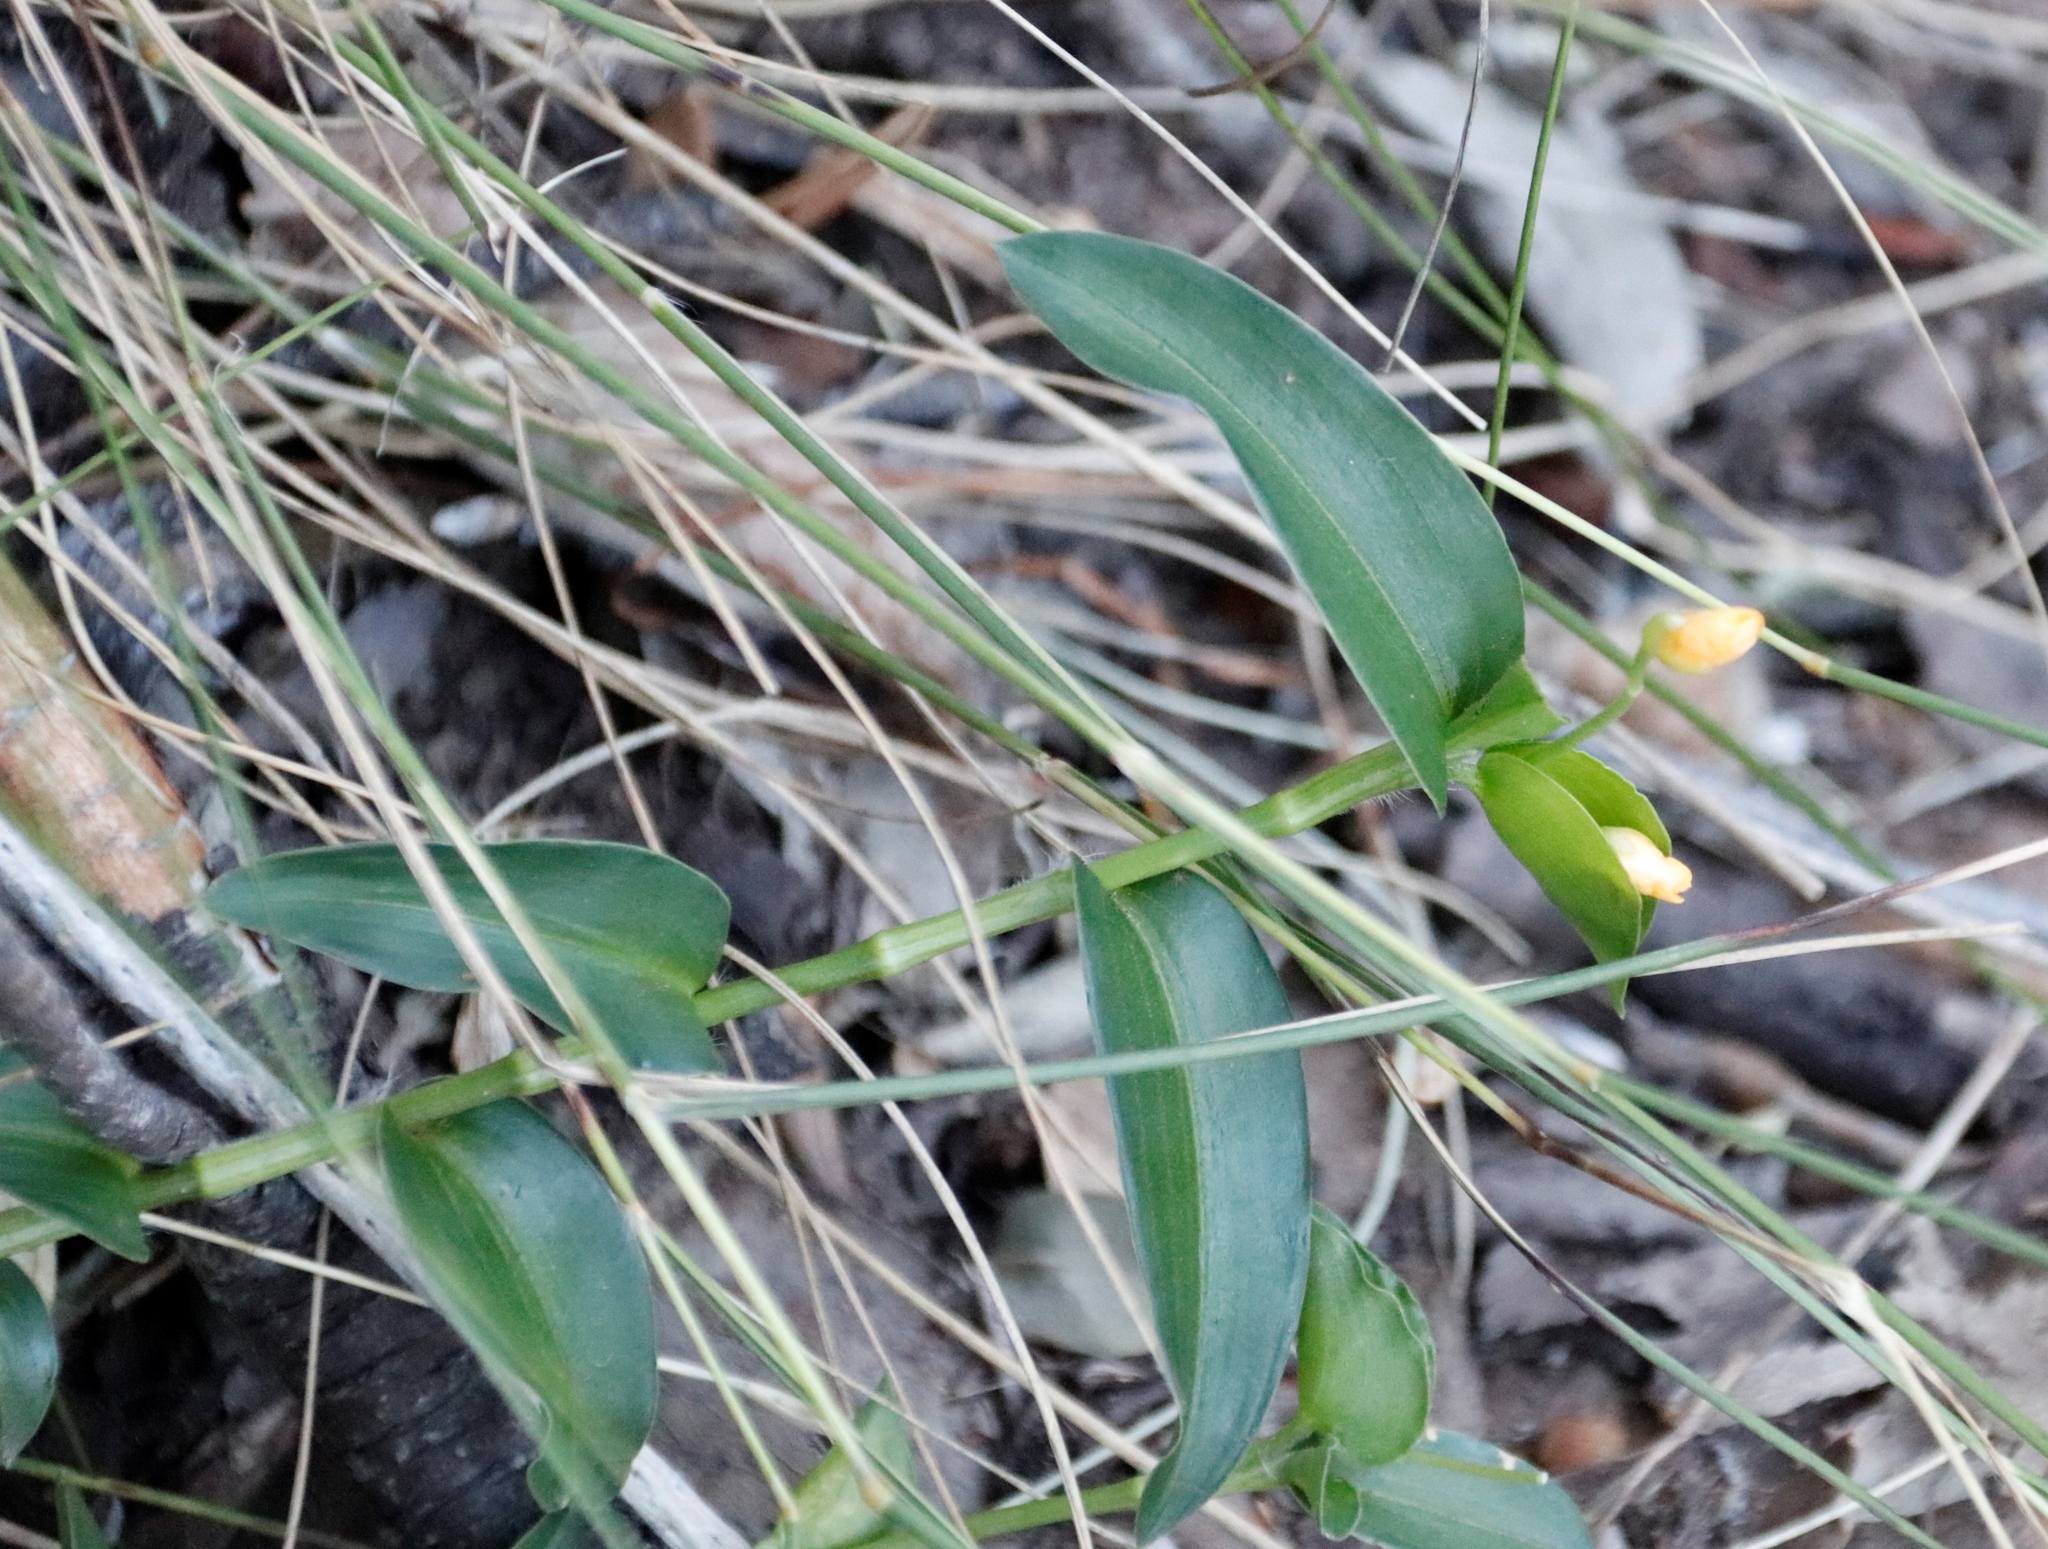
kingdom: Plantae
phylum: Tracheophyta
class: Liliopsida
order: Commelinales
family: Commelinaceae
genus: Commelina
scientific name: Commelina africana
